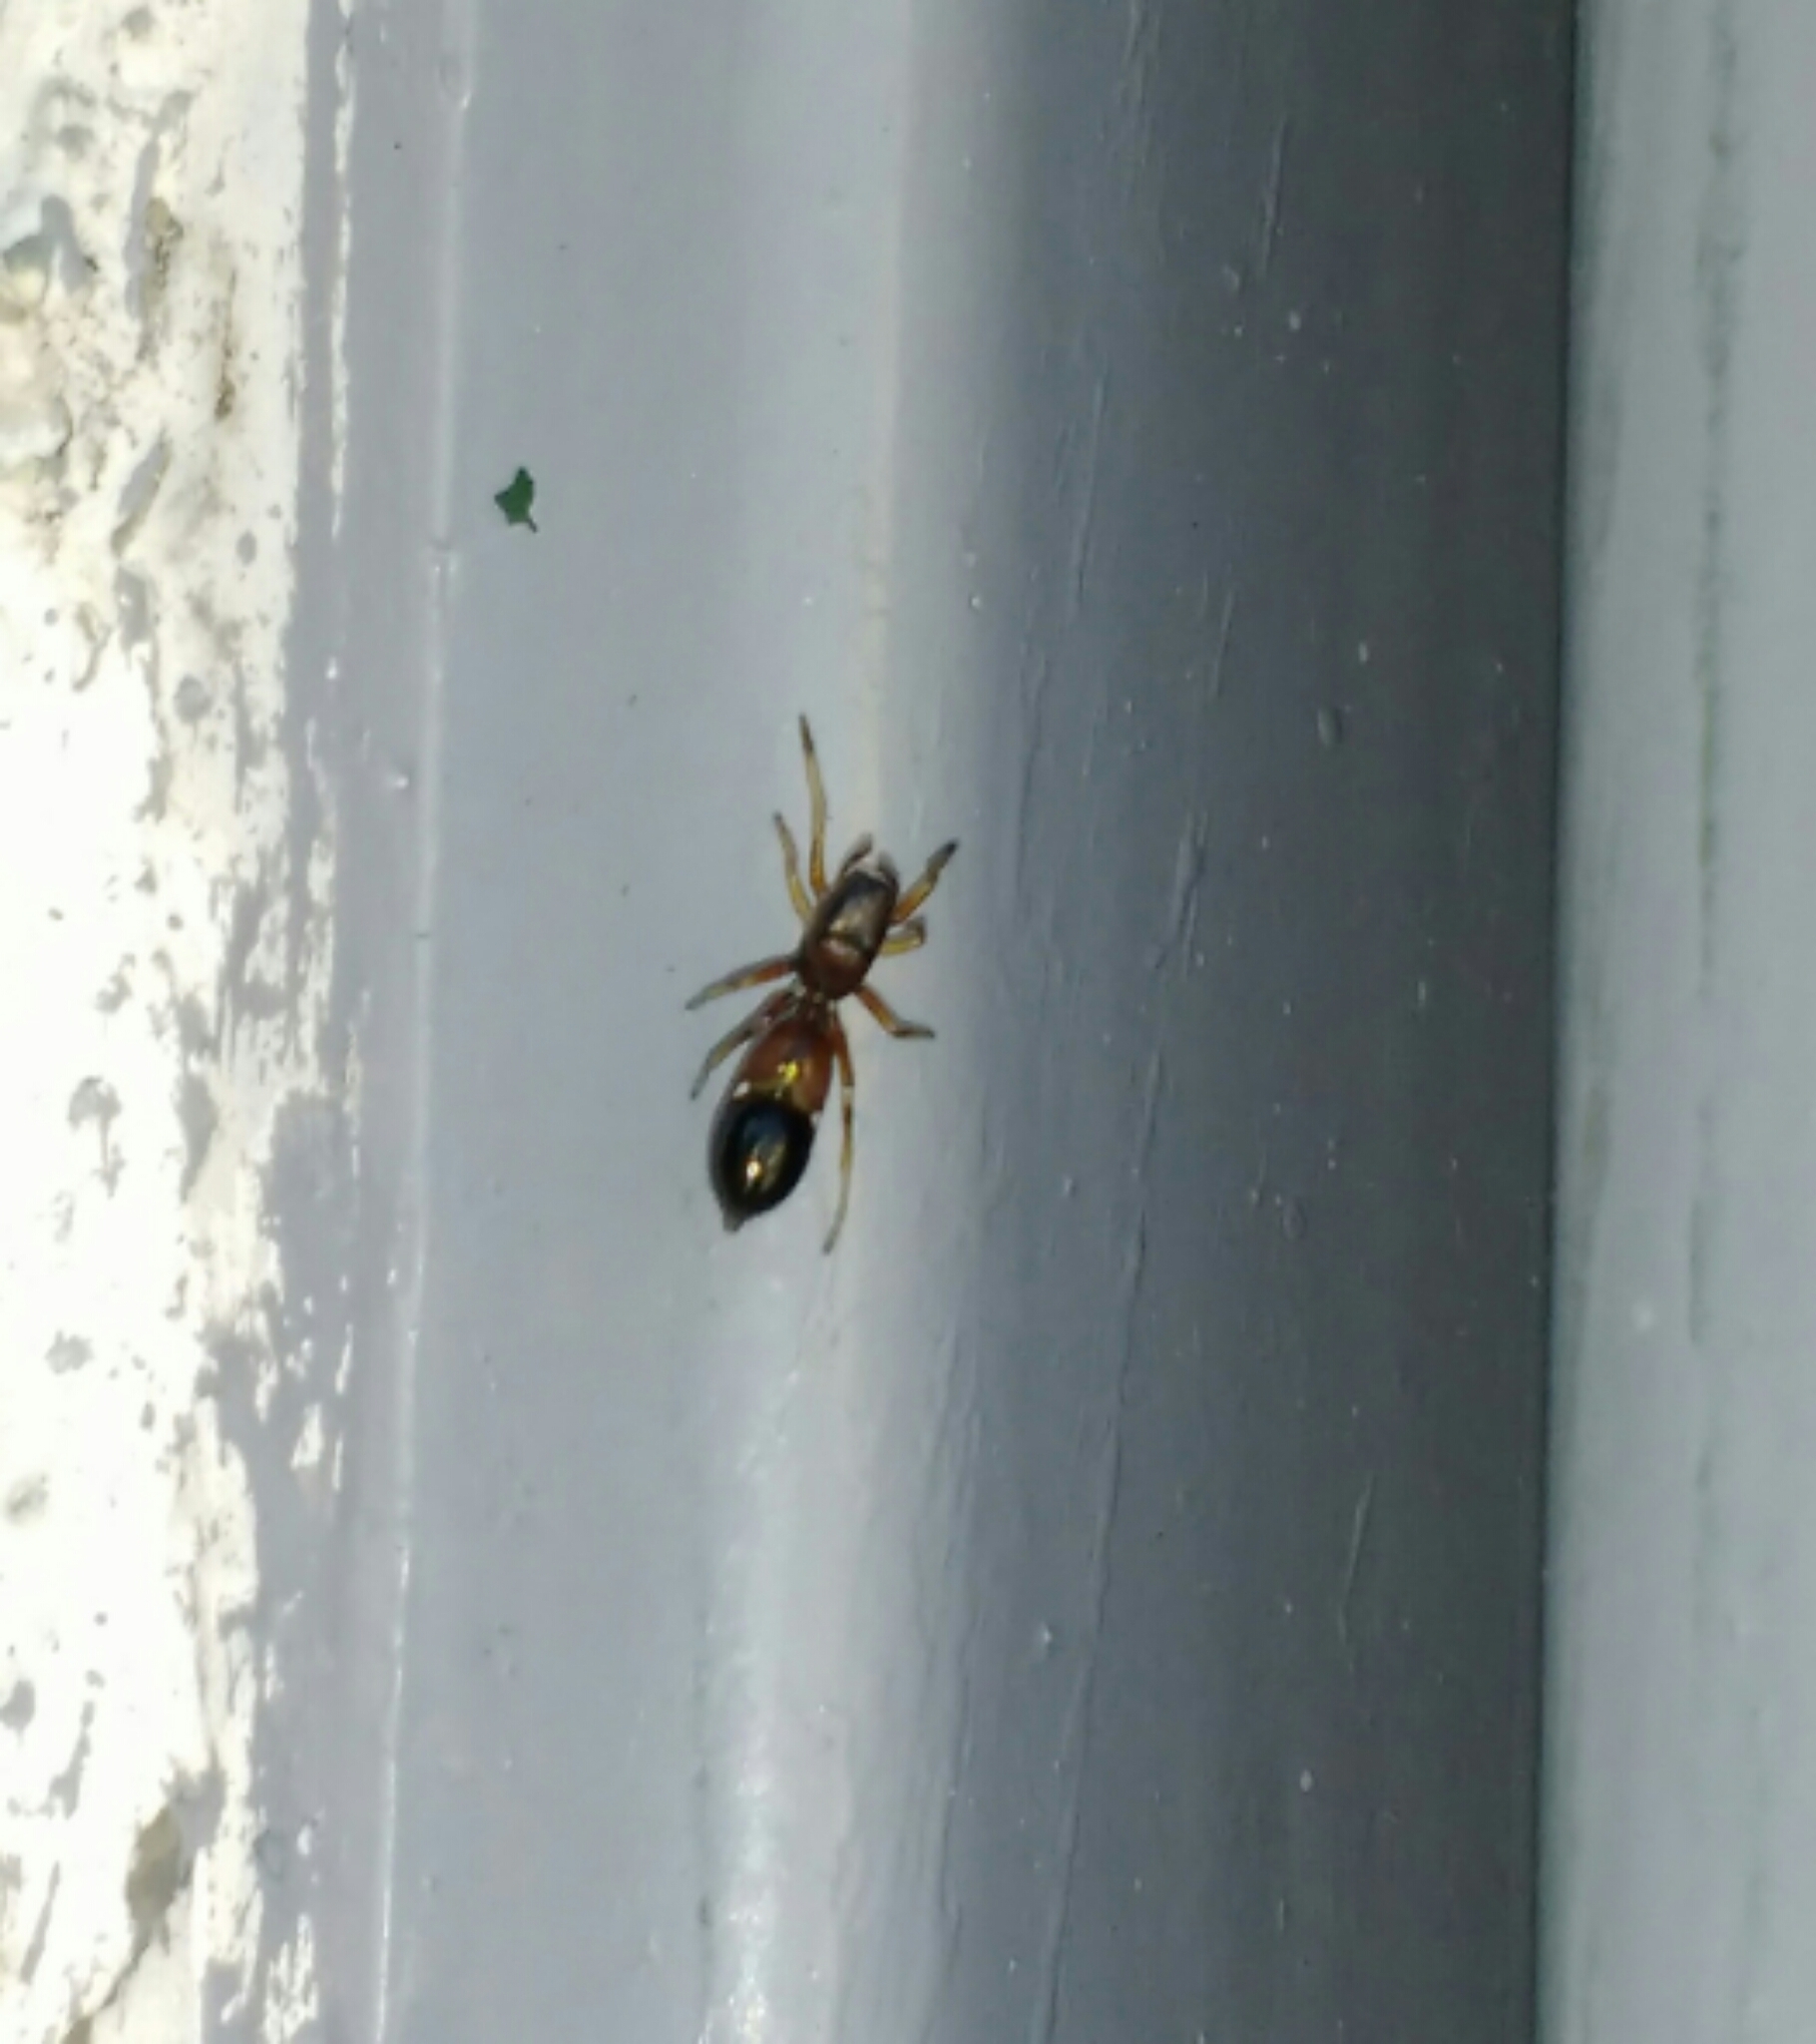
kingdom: Animalia
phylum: Arthropoda
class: Arachnida
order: Araneae
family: Salticidae
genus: Myrmarachne
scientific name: Myrmarachne formicaria
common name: Ant mimic jumping spider
